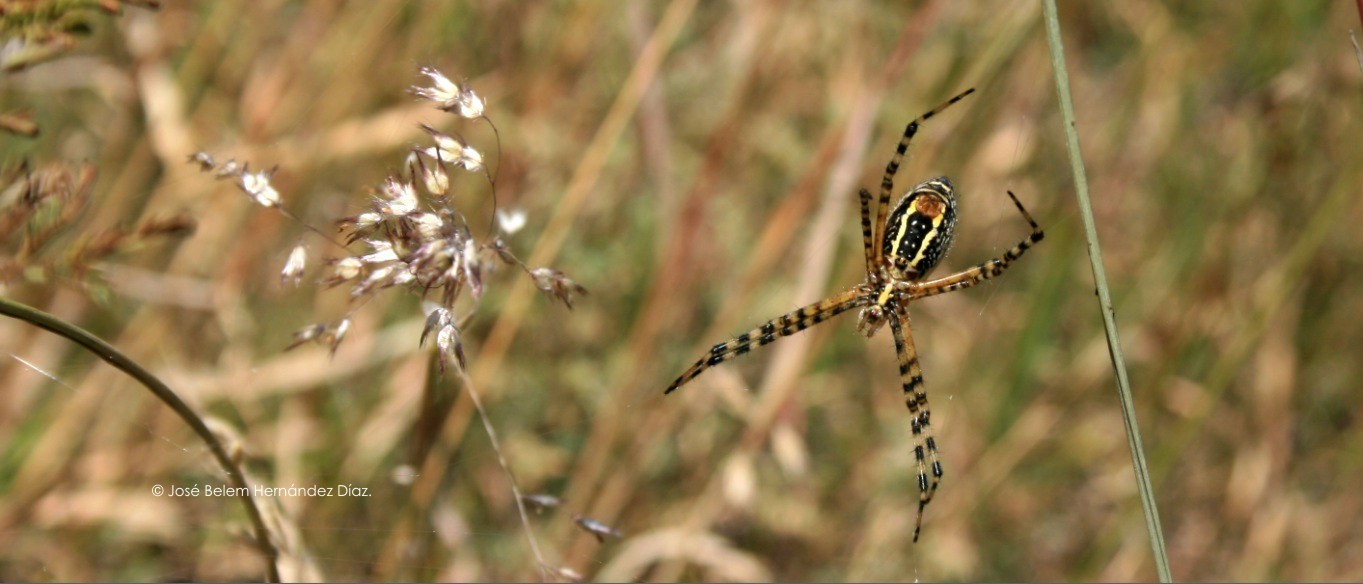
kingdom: Animalia
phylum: Arthropoda
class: Arachnida
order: Araneae
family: Araneidae
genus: Argiope
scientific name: Argiope trifasciata
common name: Banded garden spider
